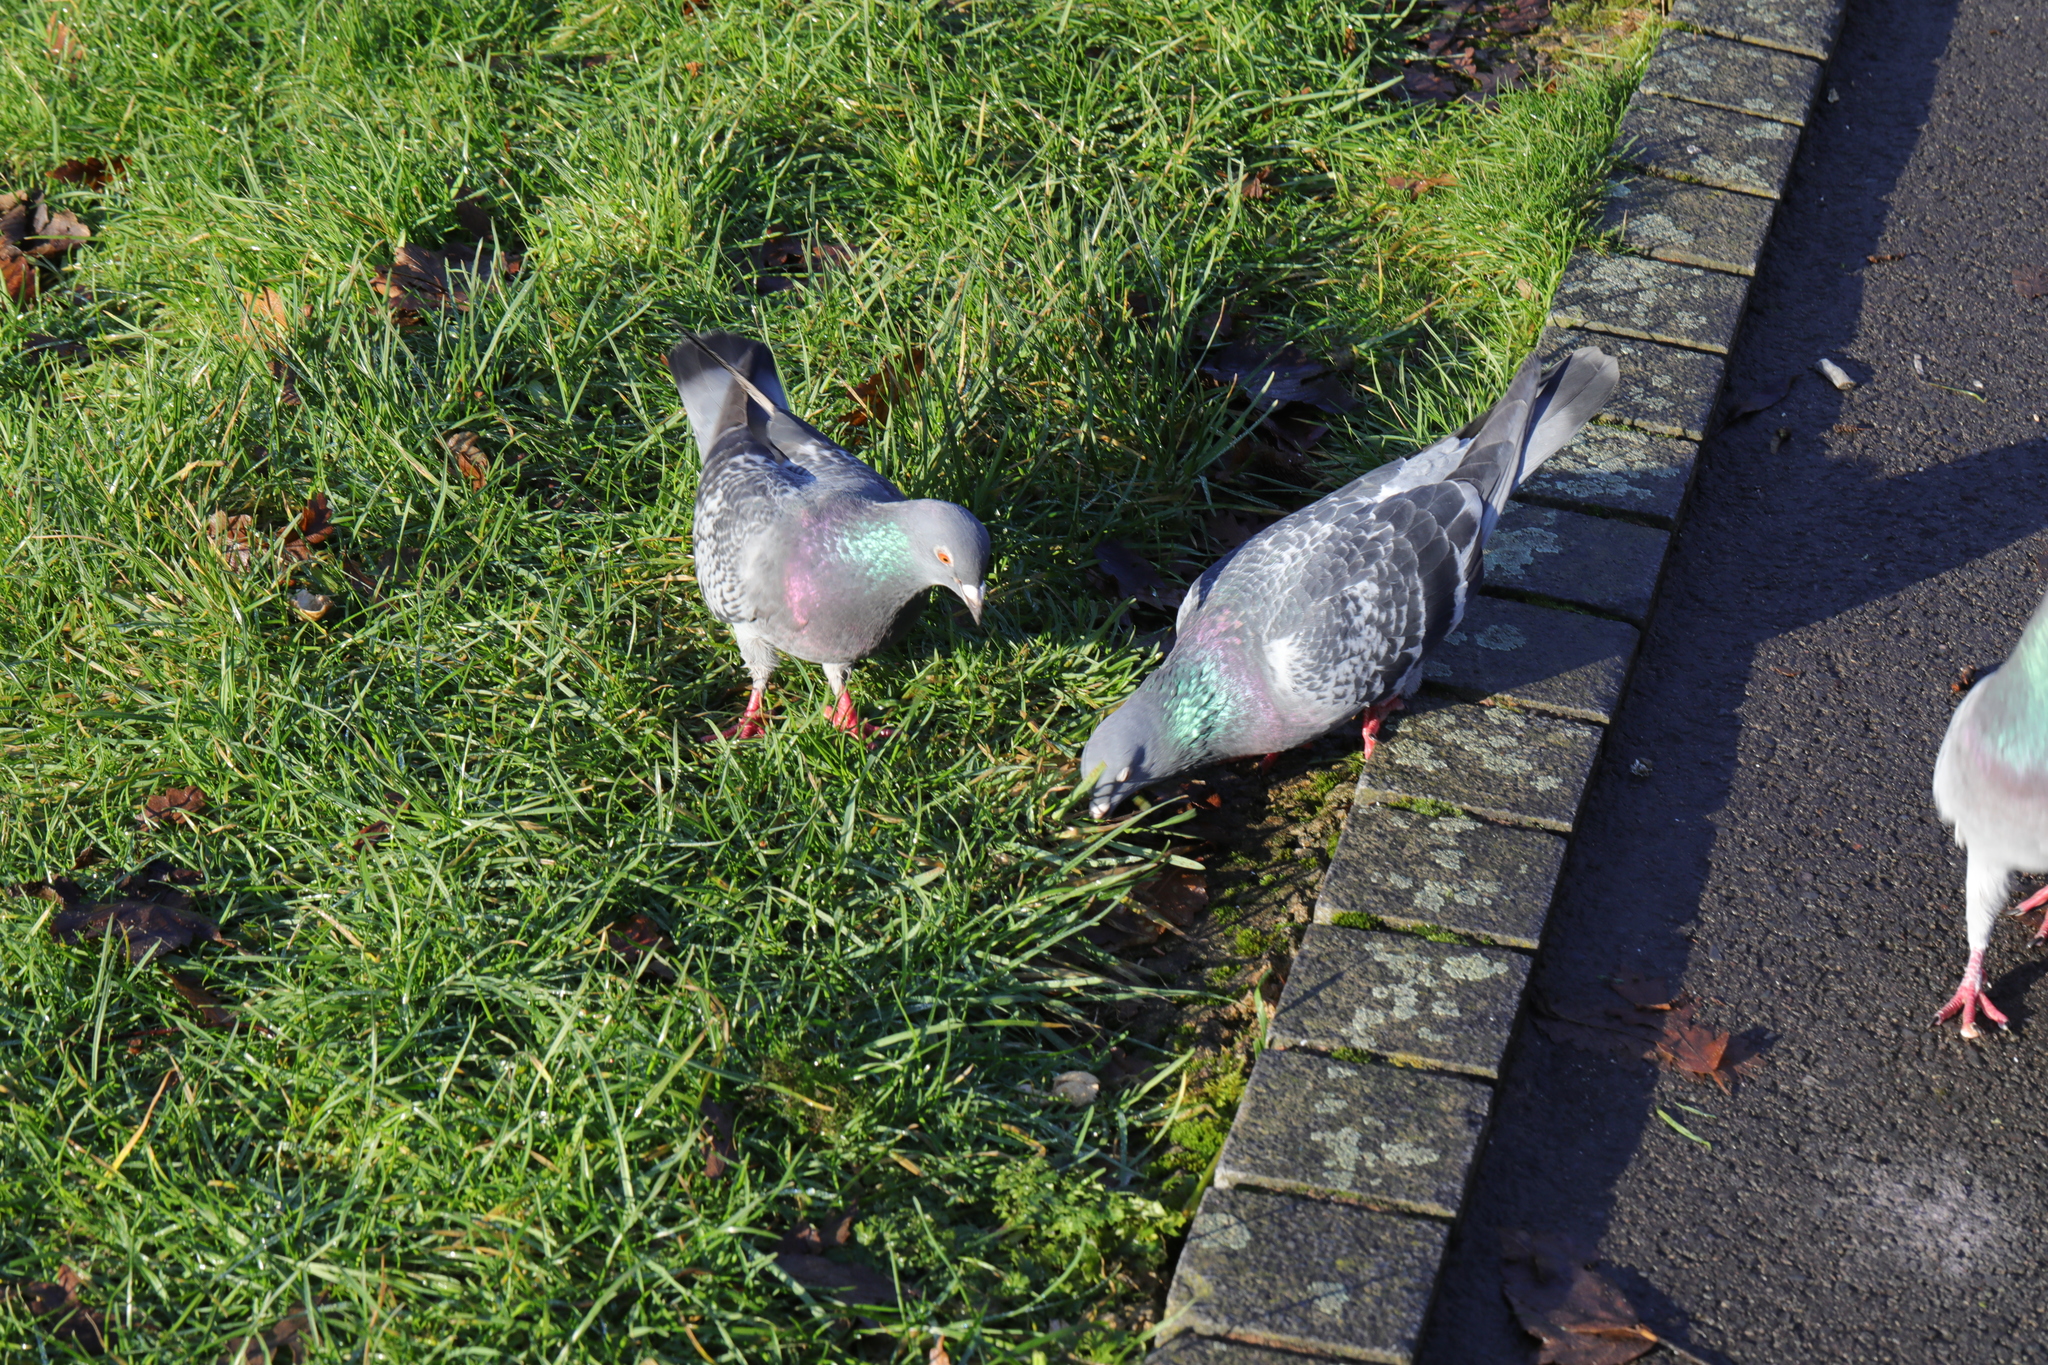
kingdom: Animalia
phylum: Chordata
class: Aves
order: Columbiformes
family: Columbidae
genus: Columba
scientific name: Columba livia
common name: Rock pigeon
